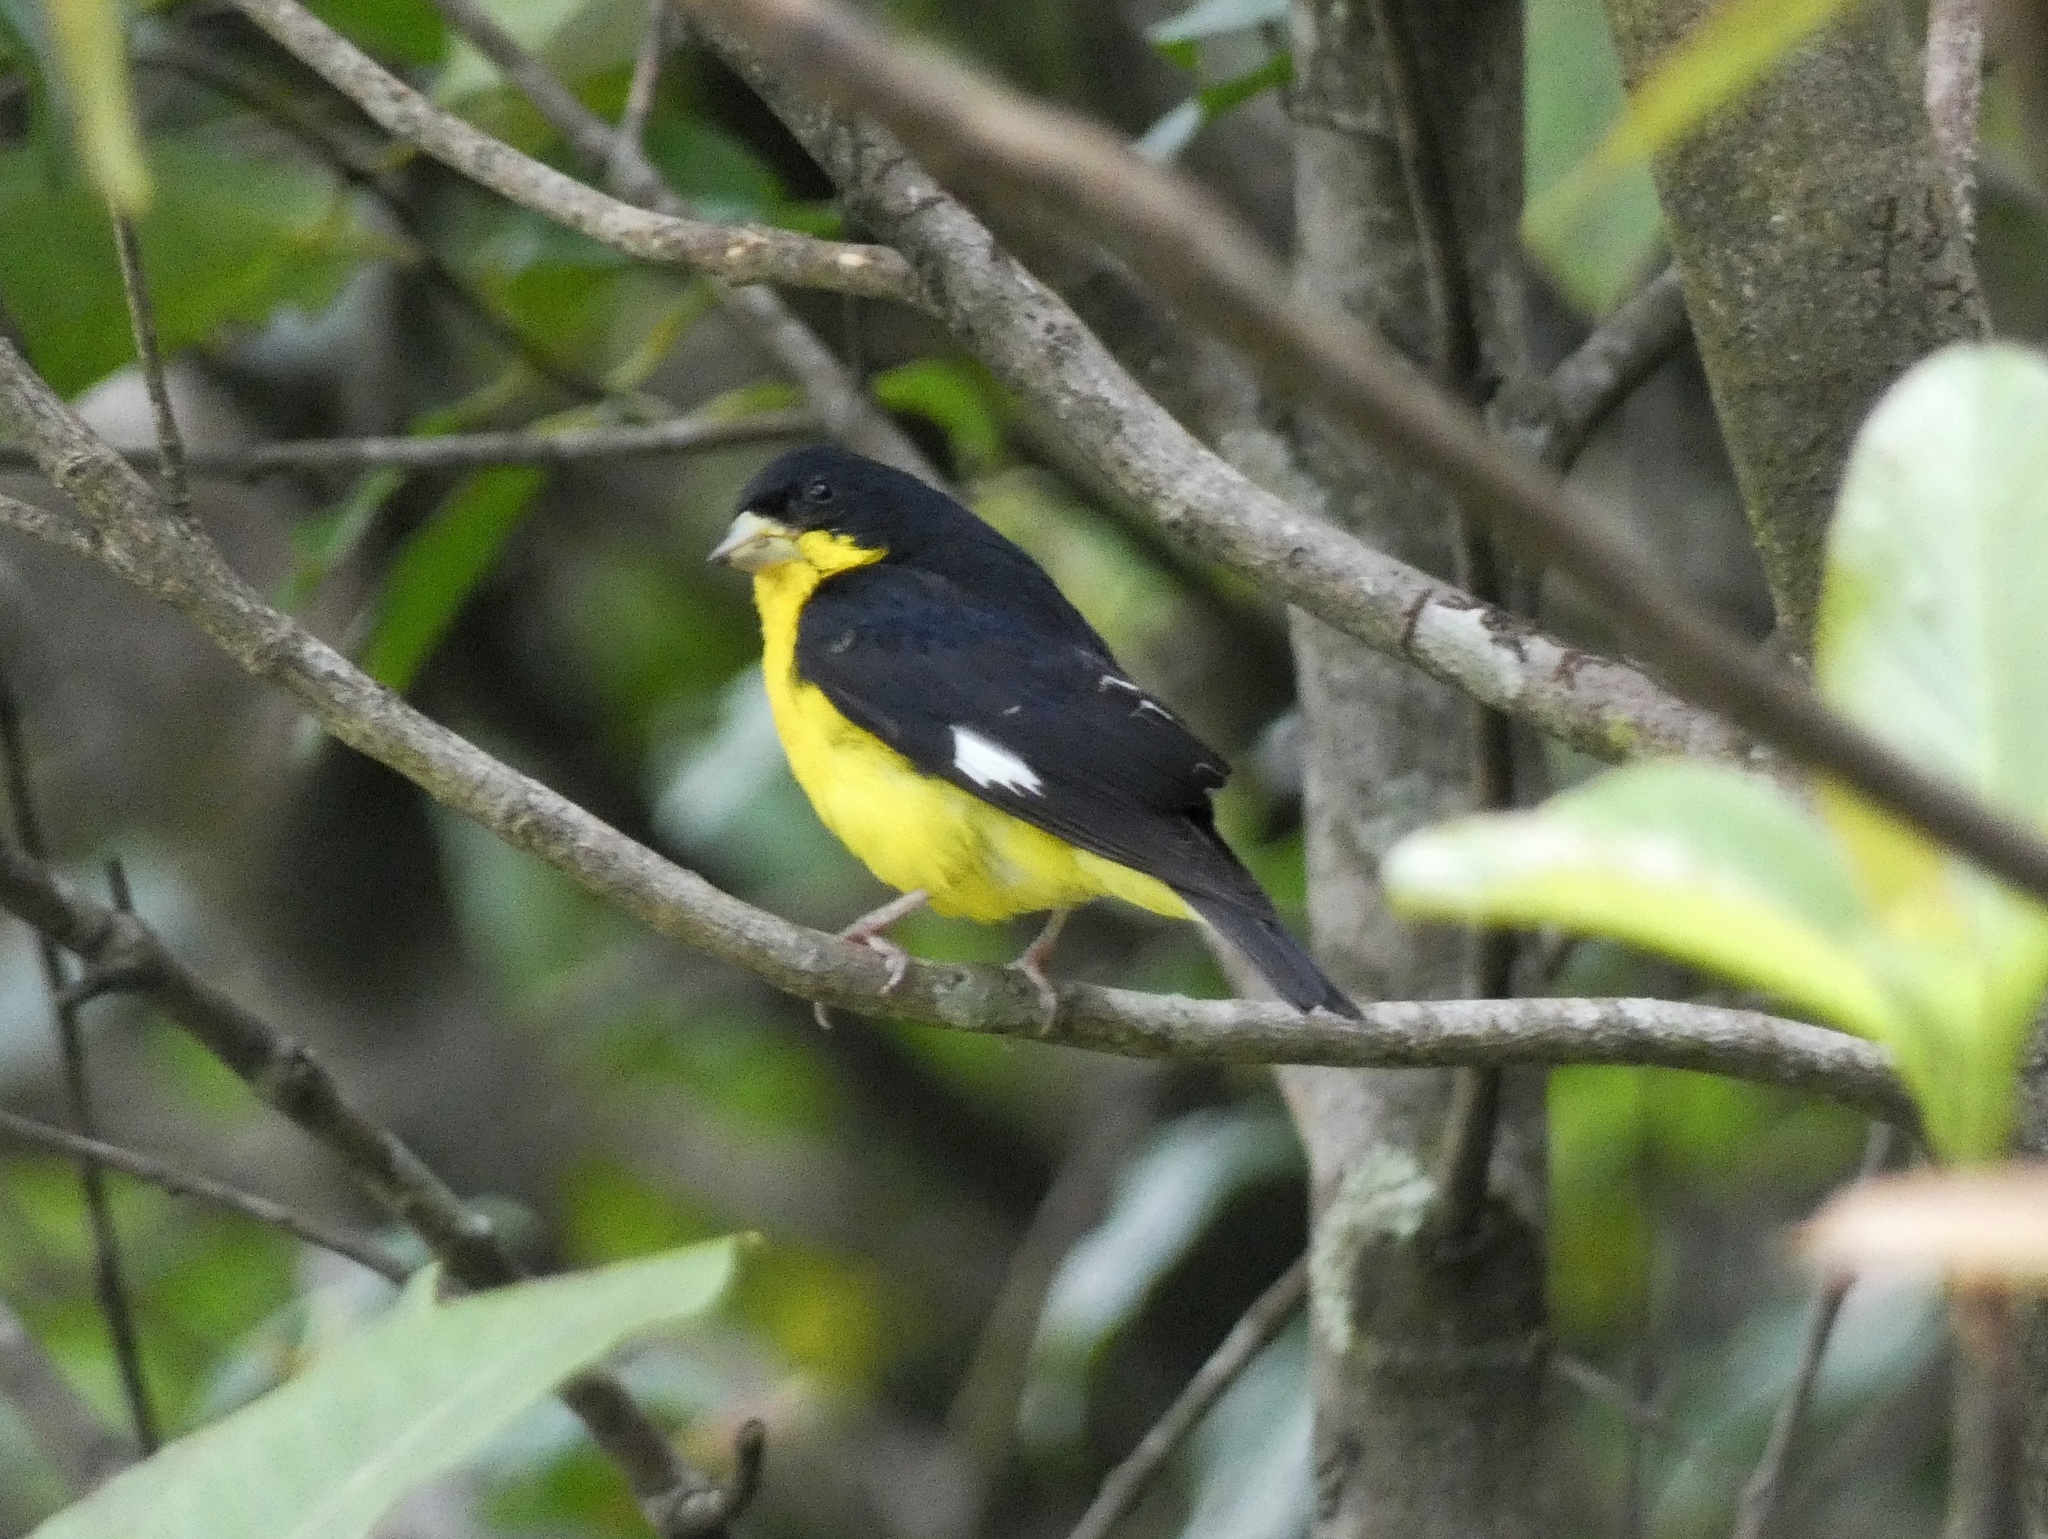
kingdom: Animalia
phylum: Chordata
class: Aves
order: Passeriformes
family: Fringillidae
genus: Spinus
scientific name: Spinus psaltria
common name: Lesser goldfinch
